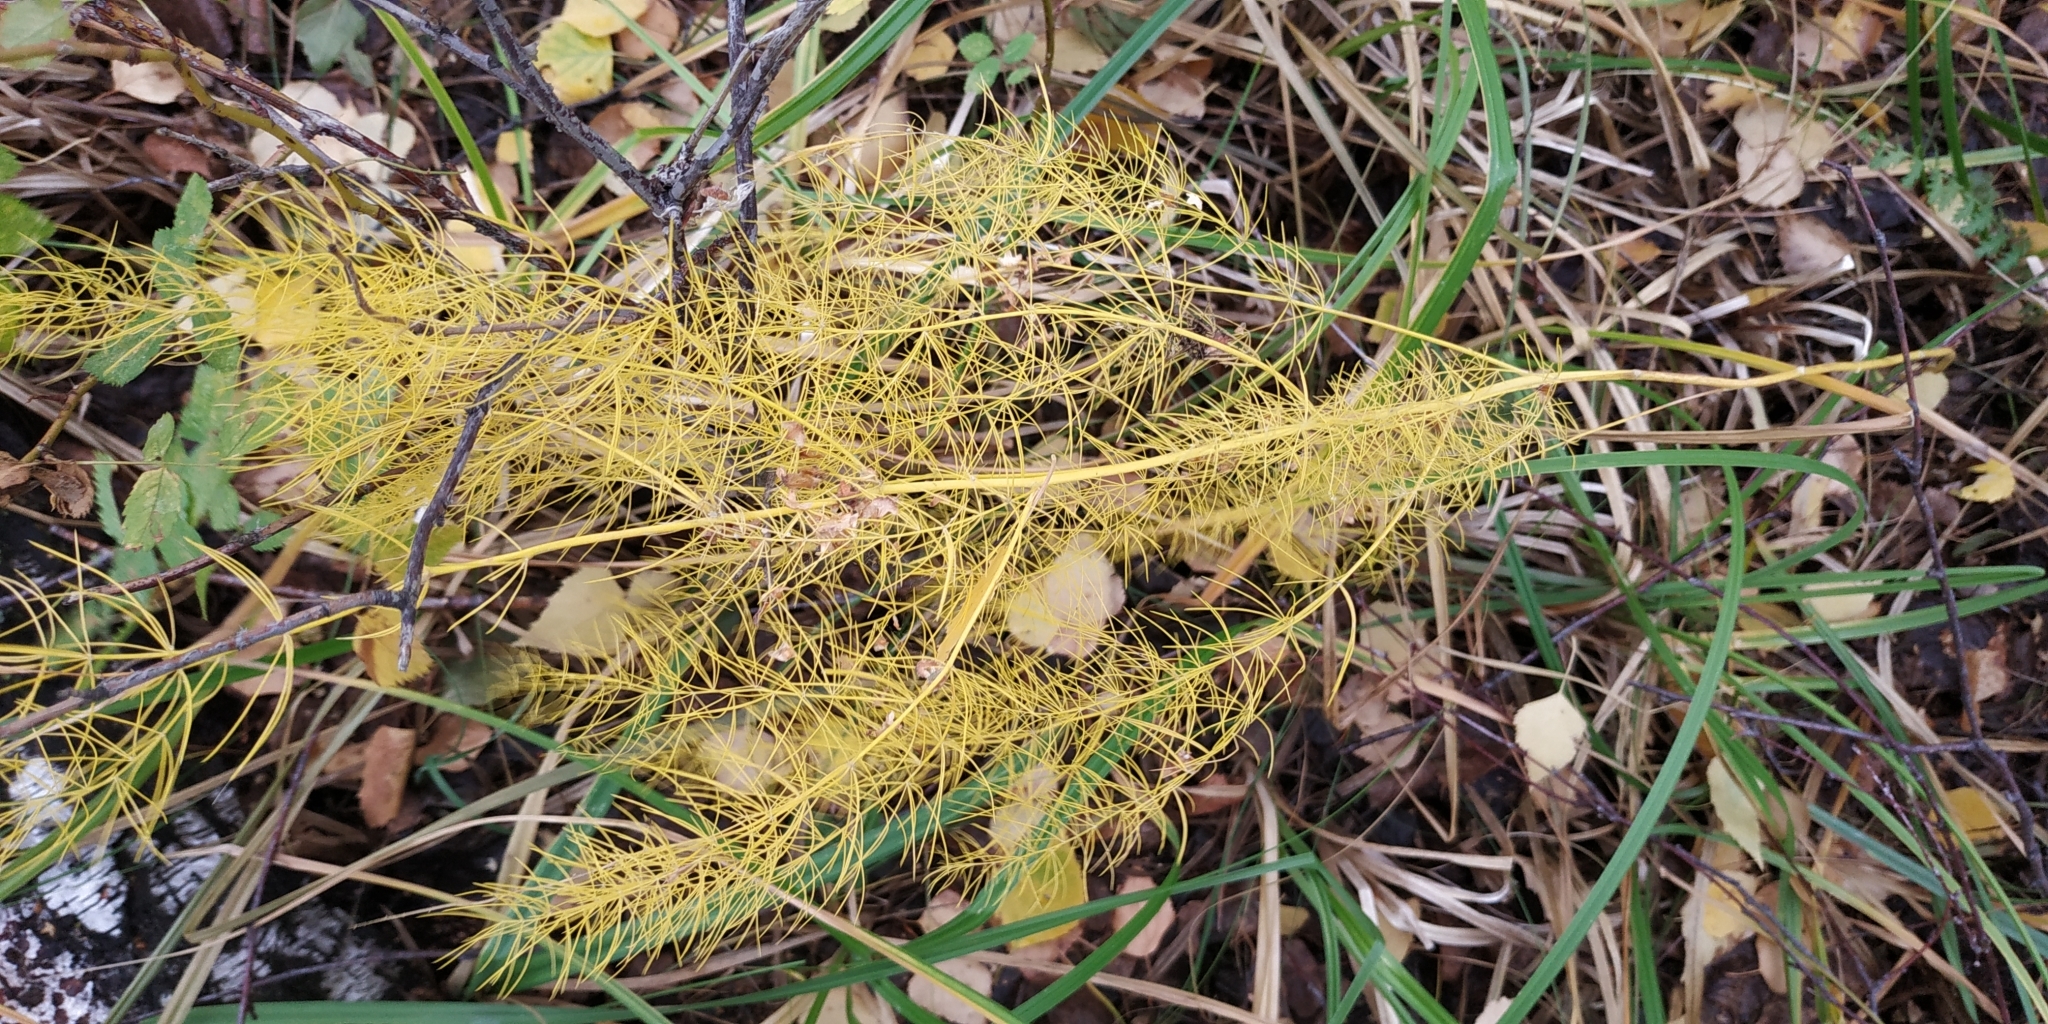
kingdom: Plantae
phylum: Tracheophyta
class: Liliopsida
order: Asparagales
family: Asparagaceae
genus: Asparagus
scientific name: Asparagus officinalis
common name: Garden asparagus
